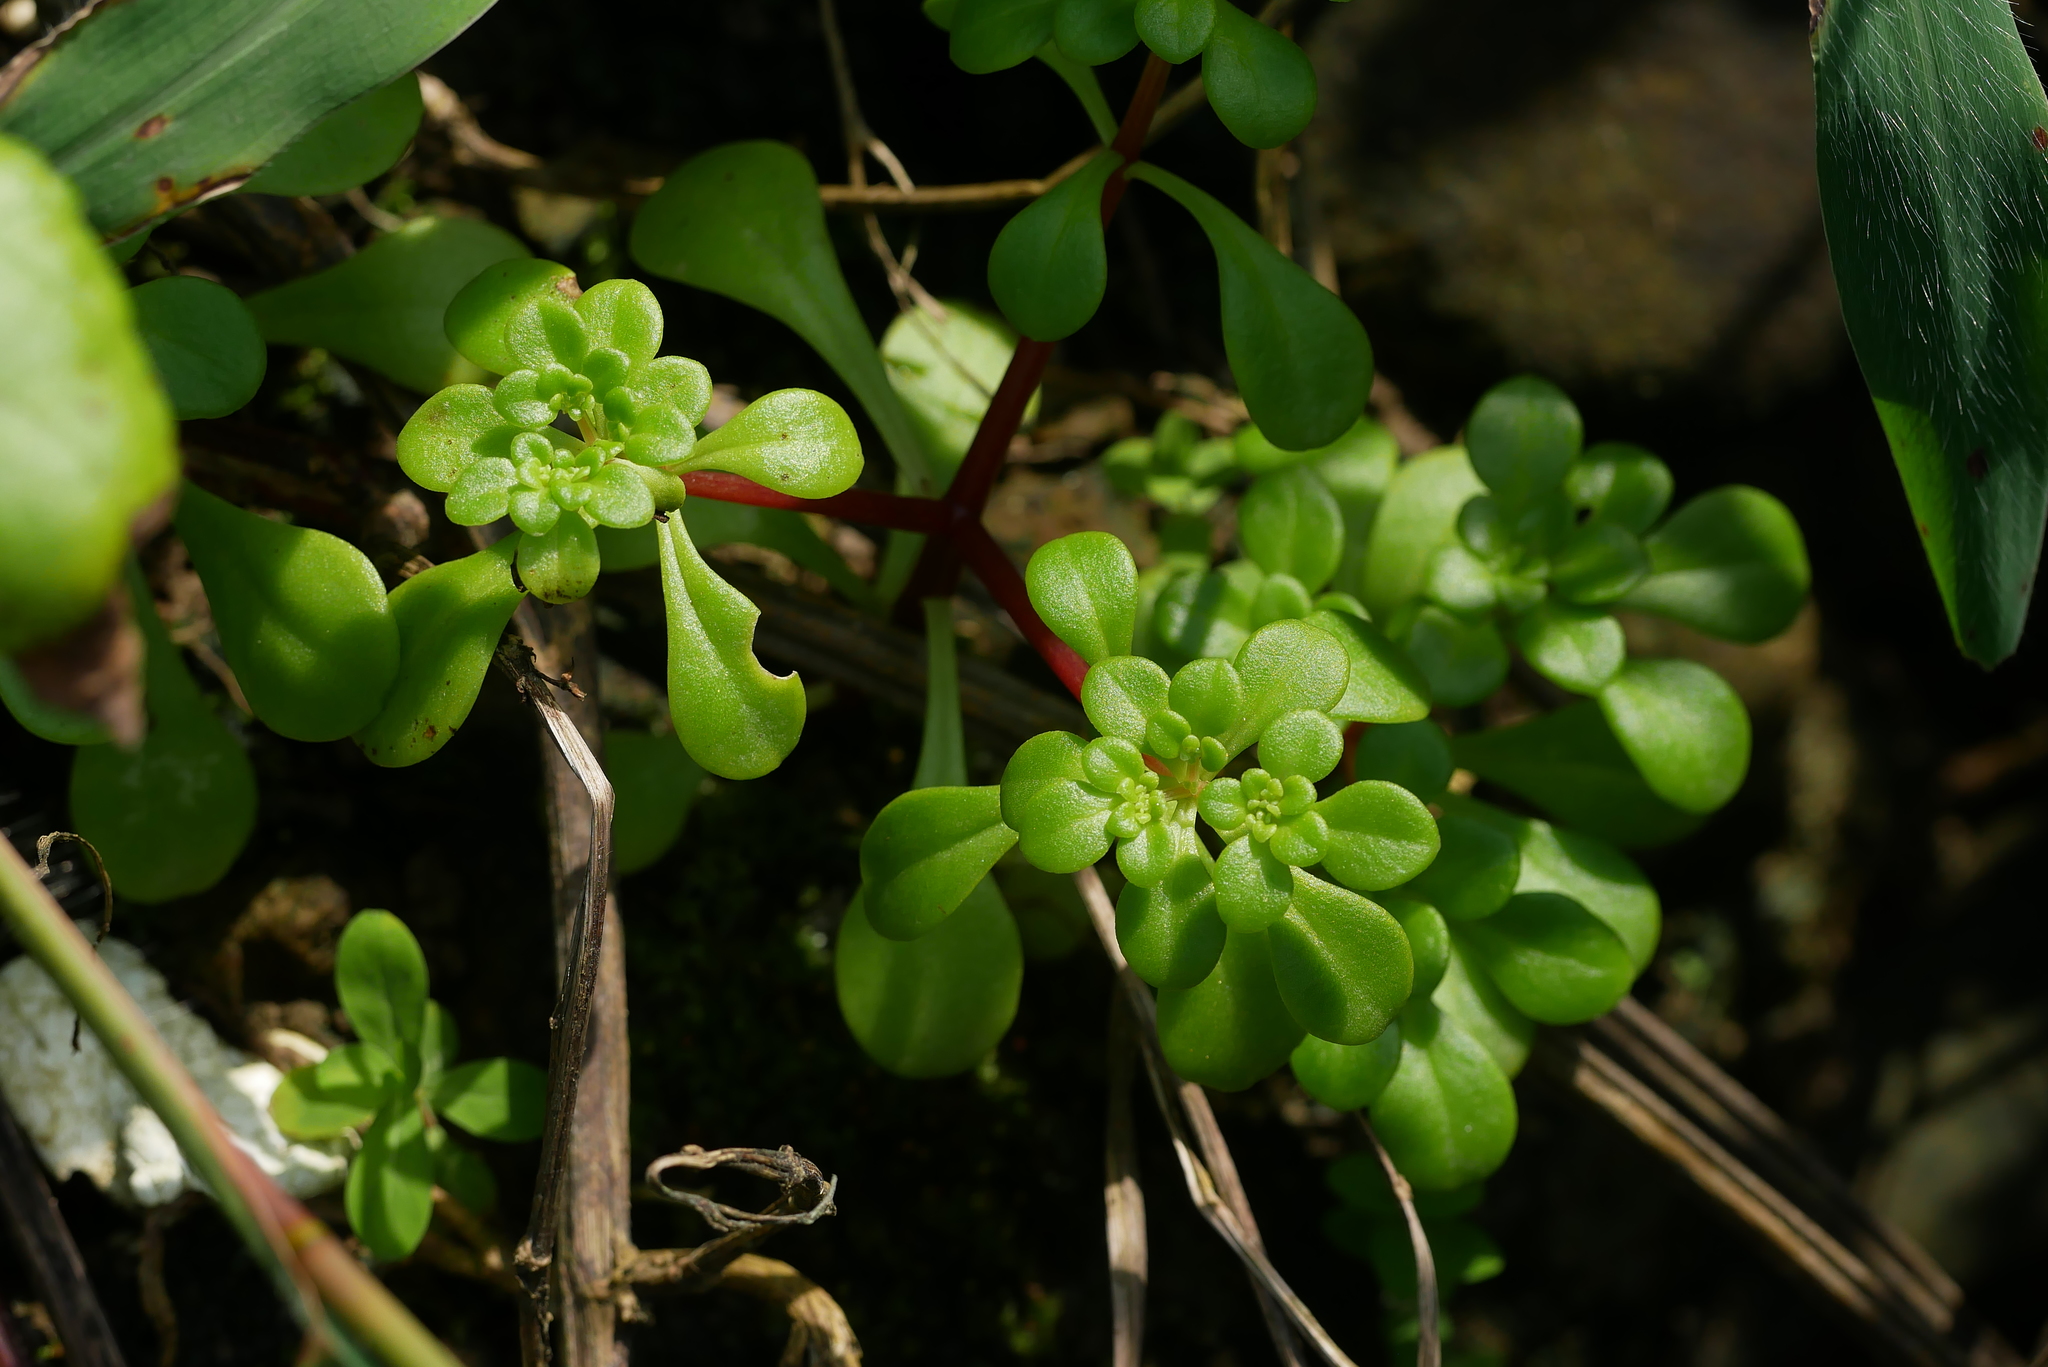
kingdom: Plantae
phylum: Tracheophyta
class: Magnoliopsida
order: Saxifragales
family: Crassulaceae
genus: Sedum
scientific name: Sedum formosanum
